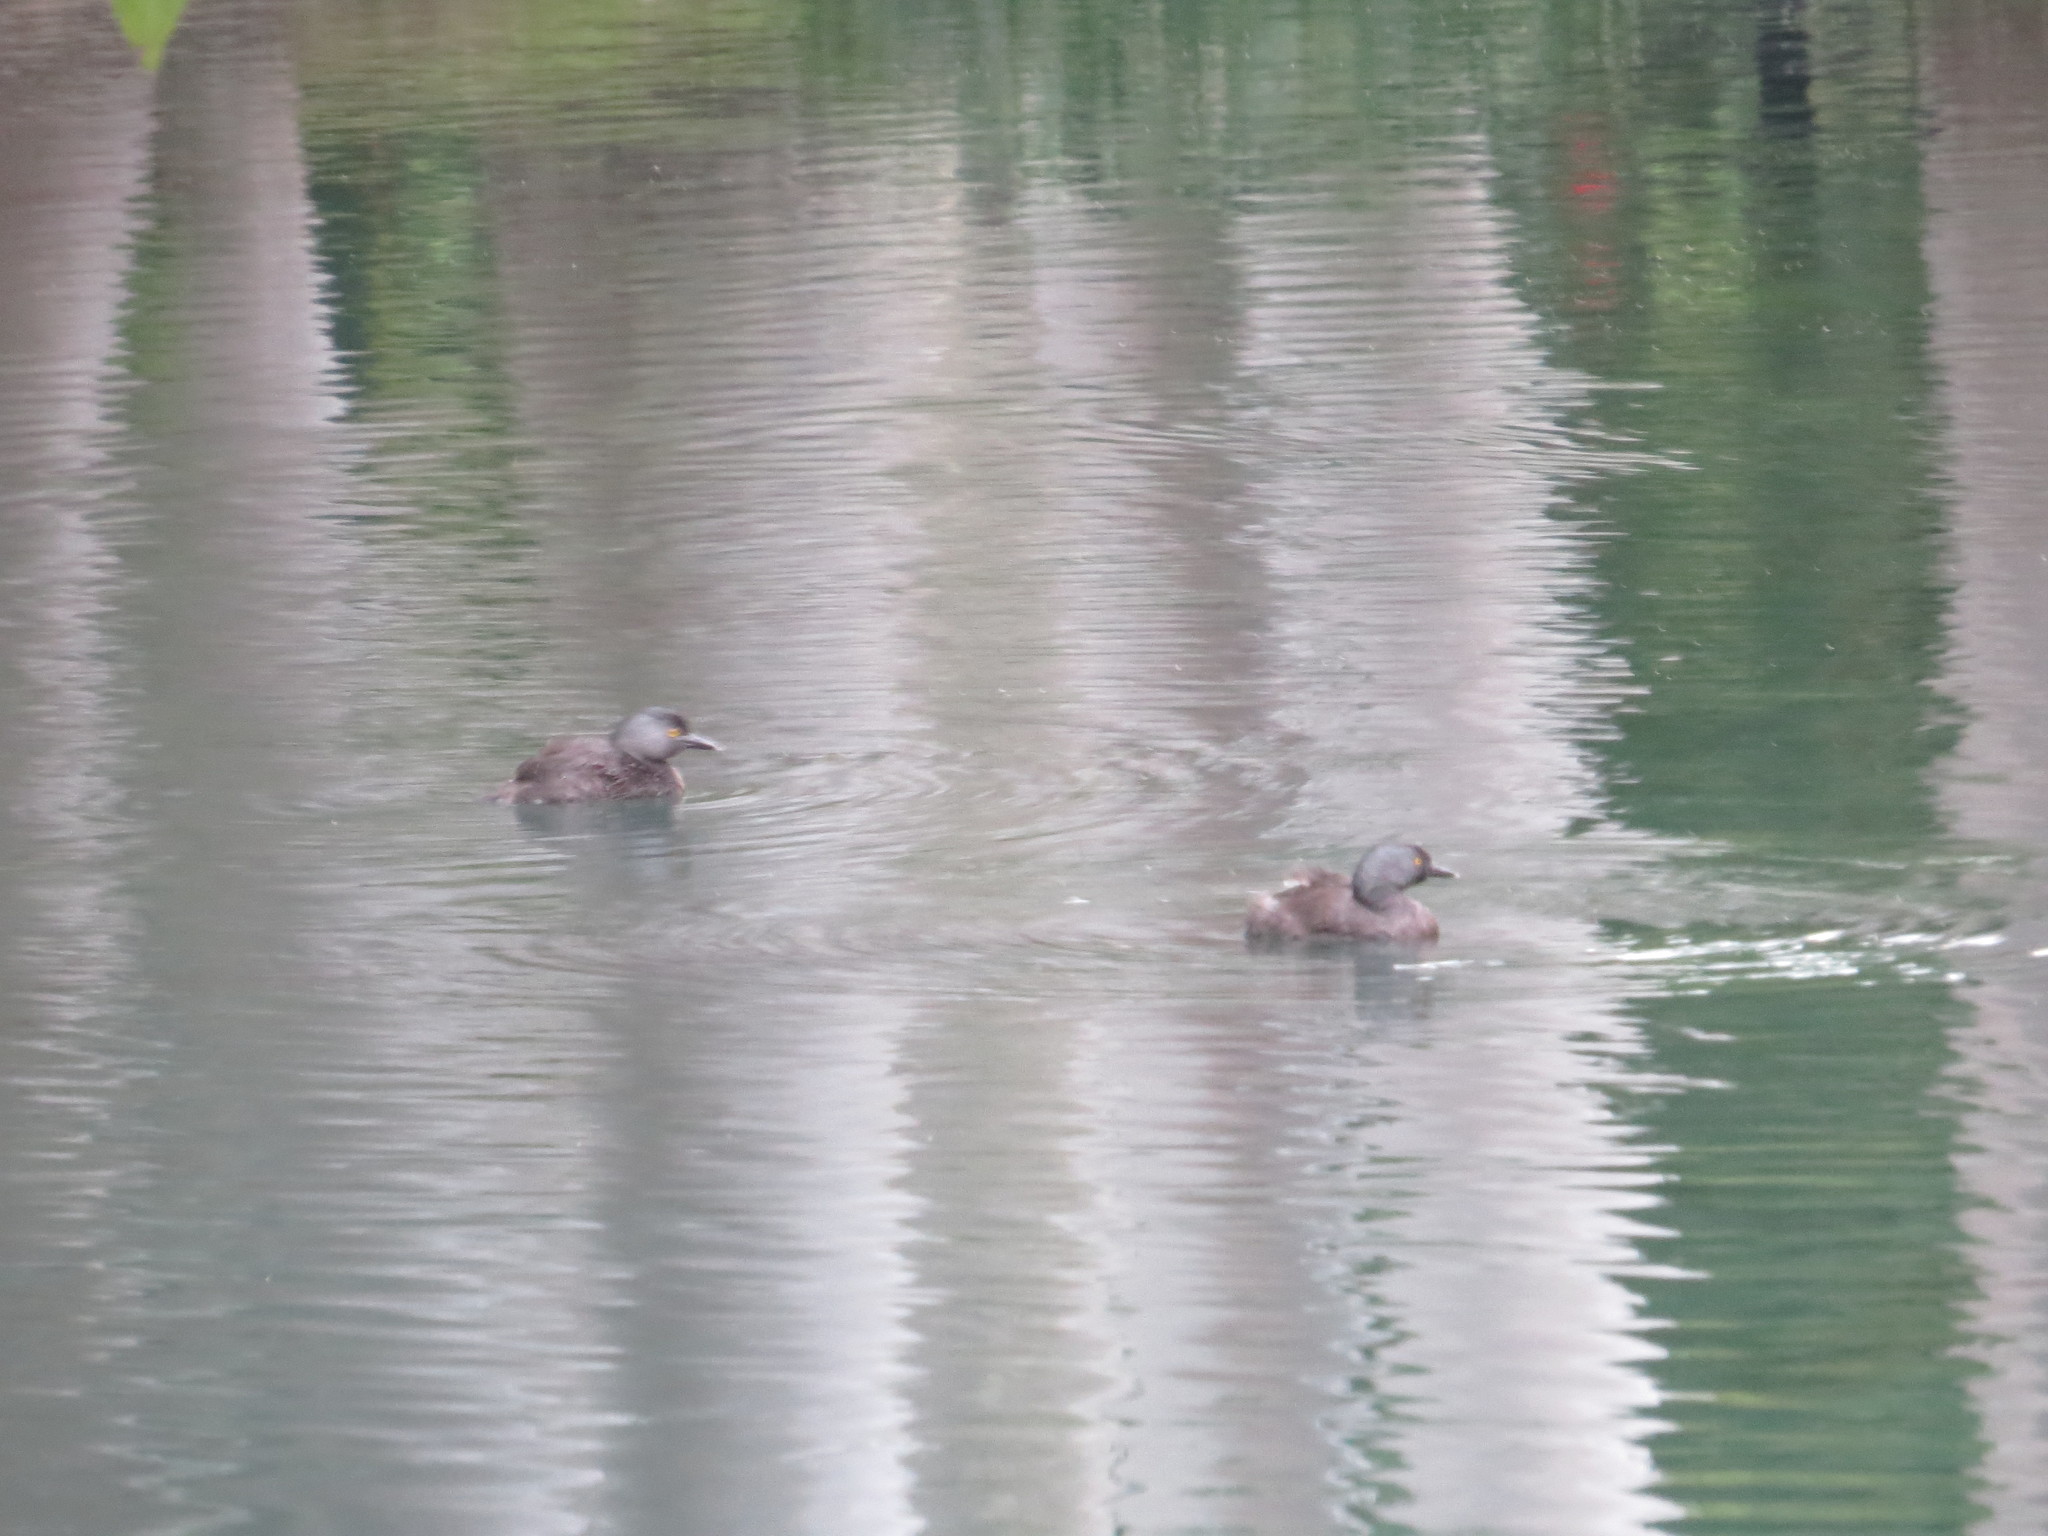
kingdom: Animalia
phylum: Chordata
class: Aves
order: Podicipediformes
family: Podicipedidae
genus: Tachybaptus
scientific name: Tachybaptus dominicus
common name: Least grebe
